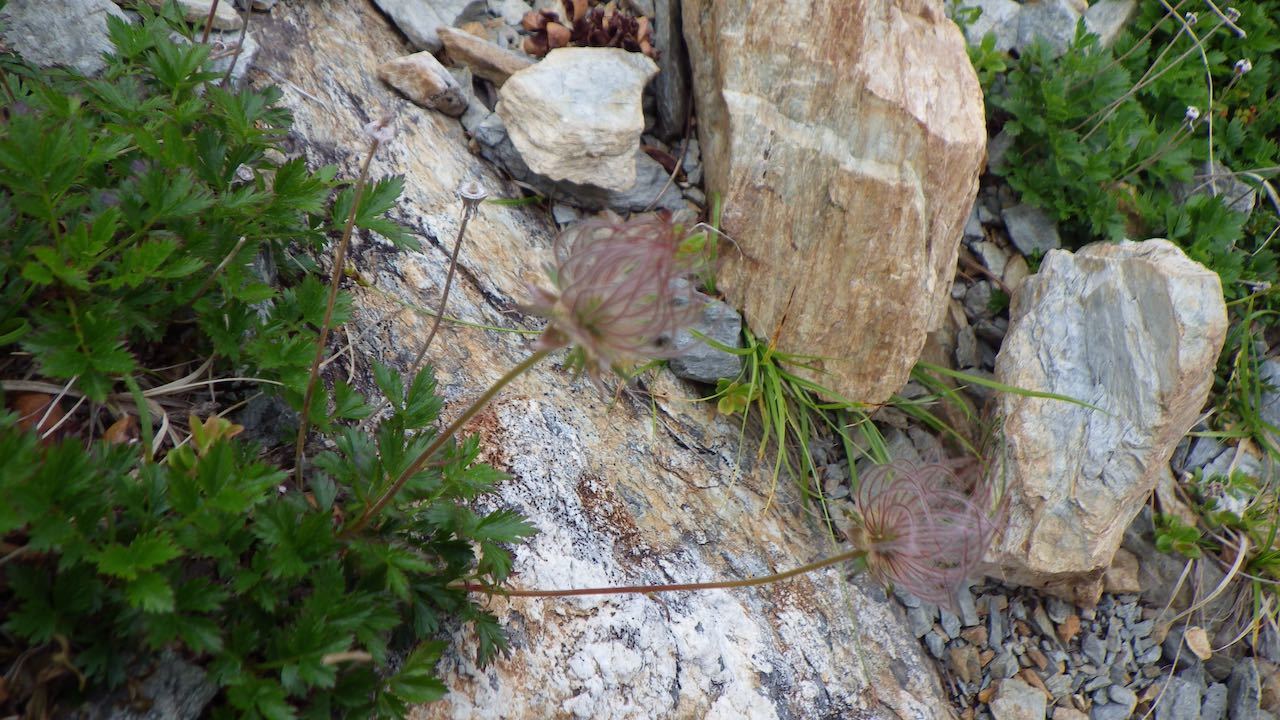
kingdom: Plantae
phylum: Tracheophyta
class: Magnoliopsida
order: Rosales
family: Rosaceae
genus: Geum
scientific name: Geum pentapetalum
